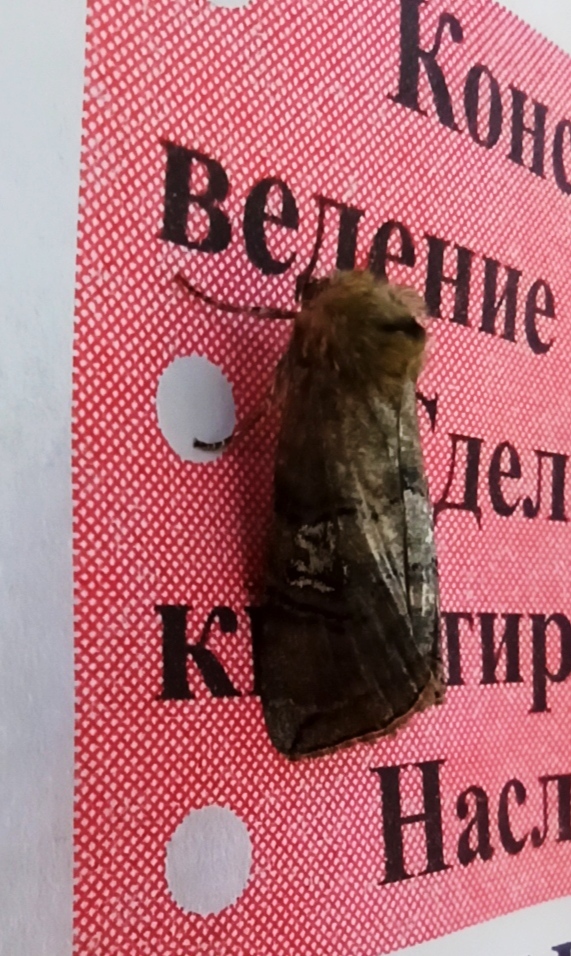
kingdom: Animalia
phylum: Arthropoda
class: Insecta
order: Lepidoptera
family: Drepanidae
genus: Tethea
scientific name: Tethea ocularis
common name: Figure of eighty
